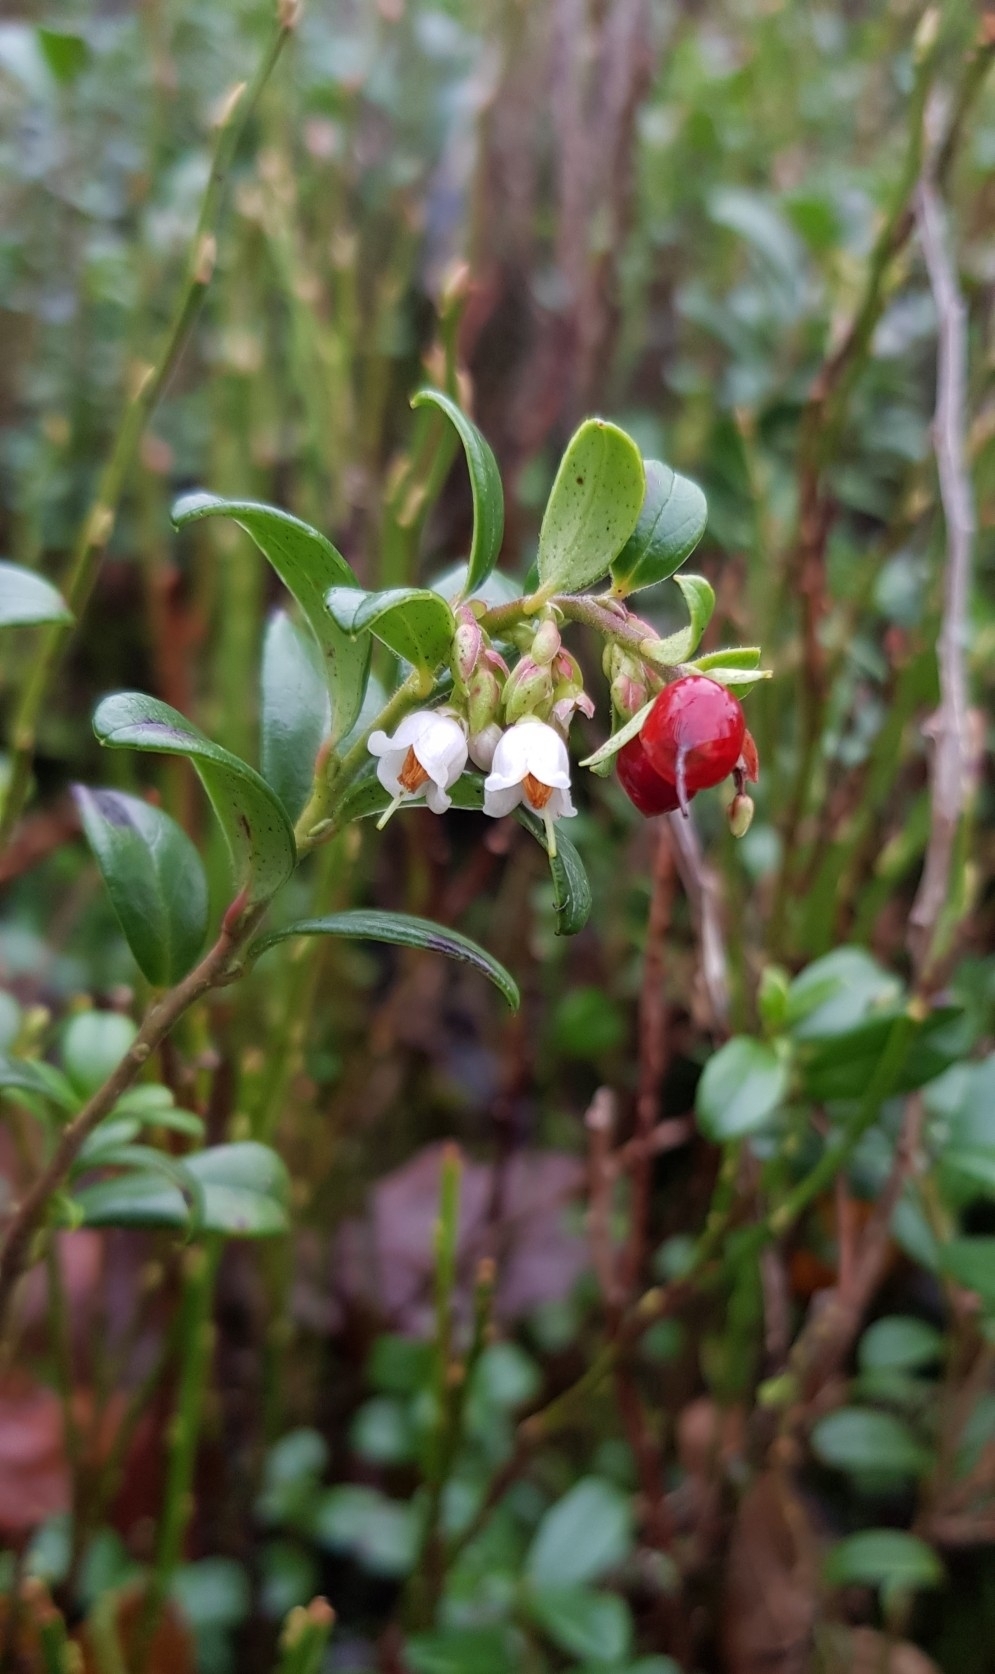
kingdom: Plantae
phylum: Tracheophyta
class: Magnoliopsida
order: Ericales
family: Ericaceae
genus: Vaccinium
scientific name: Vaccinium vitis-idaea
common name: Cowberry
